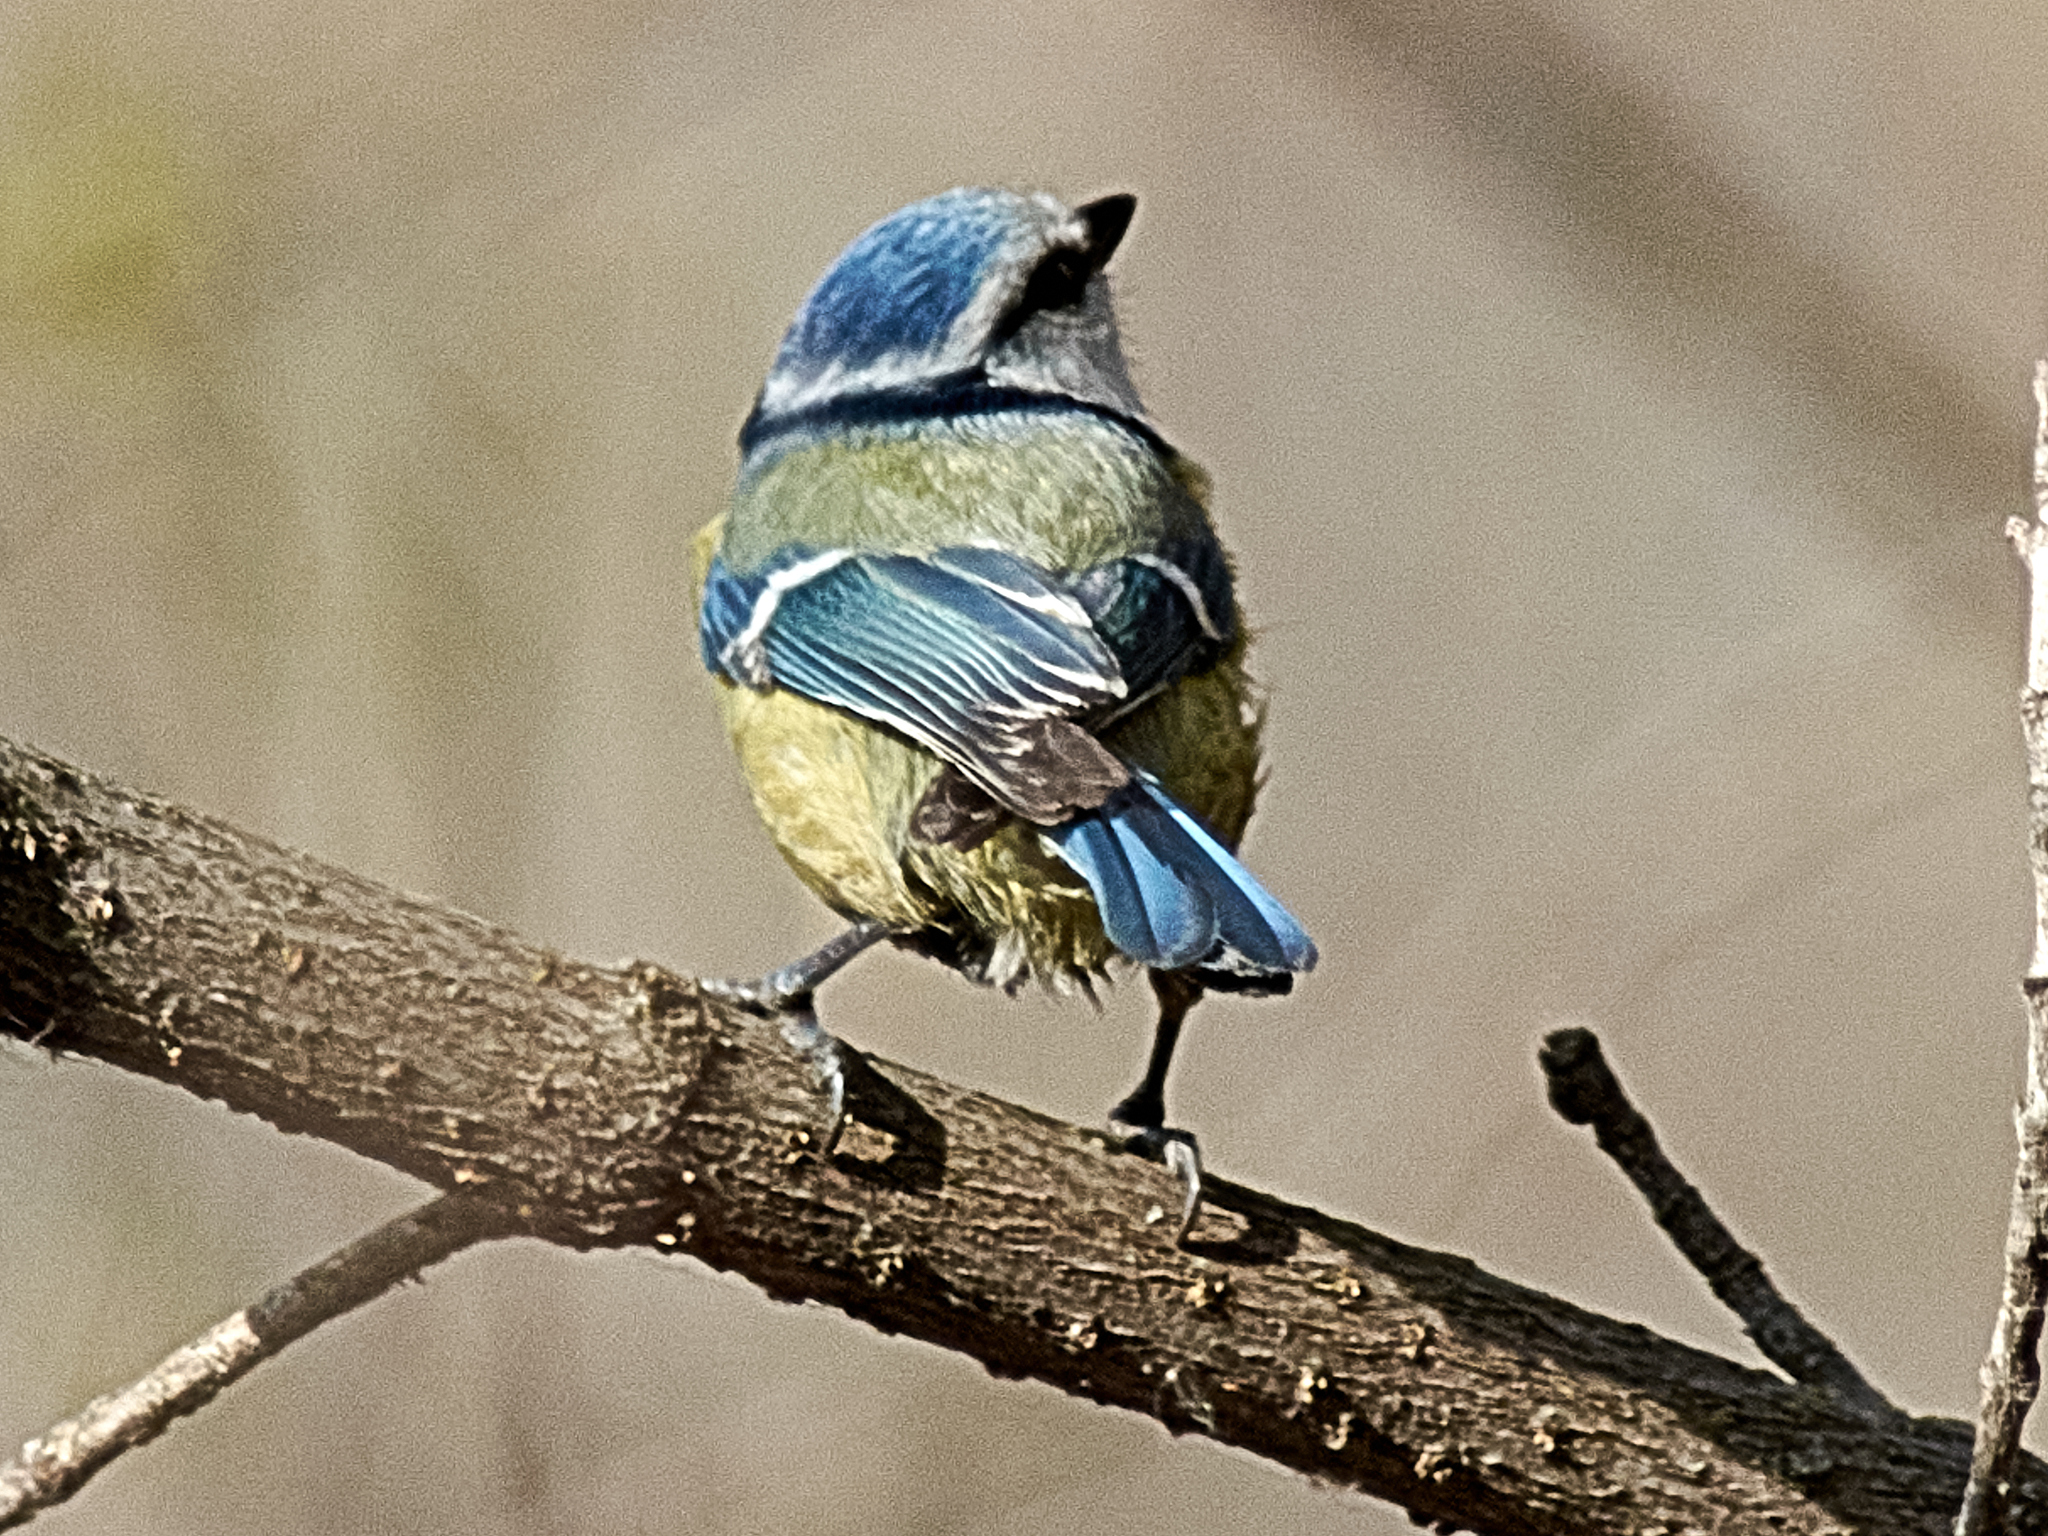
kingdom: Animalia
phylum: Chordata
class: Aves
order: Passeriformes
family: Paridae
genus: Cyanistes
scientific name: Cyanistes caeruleus
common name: Eurasian blue tit
